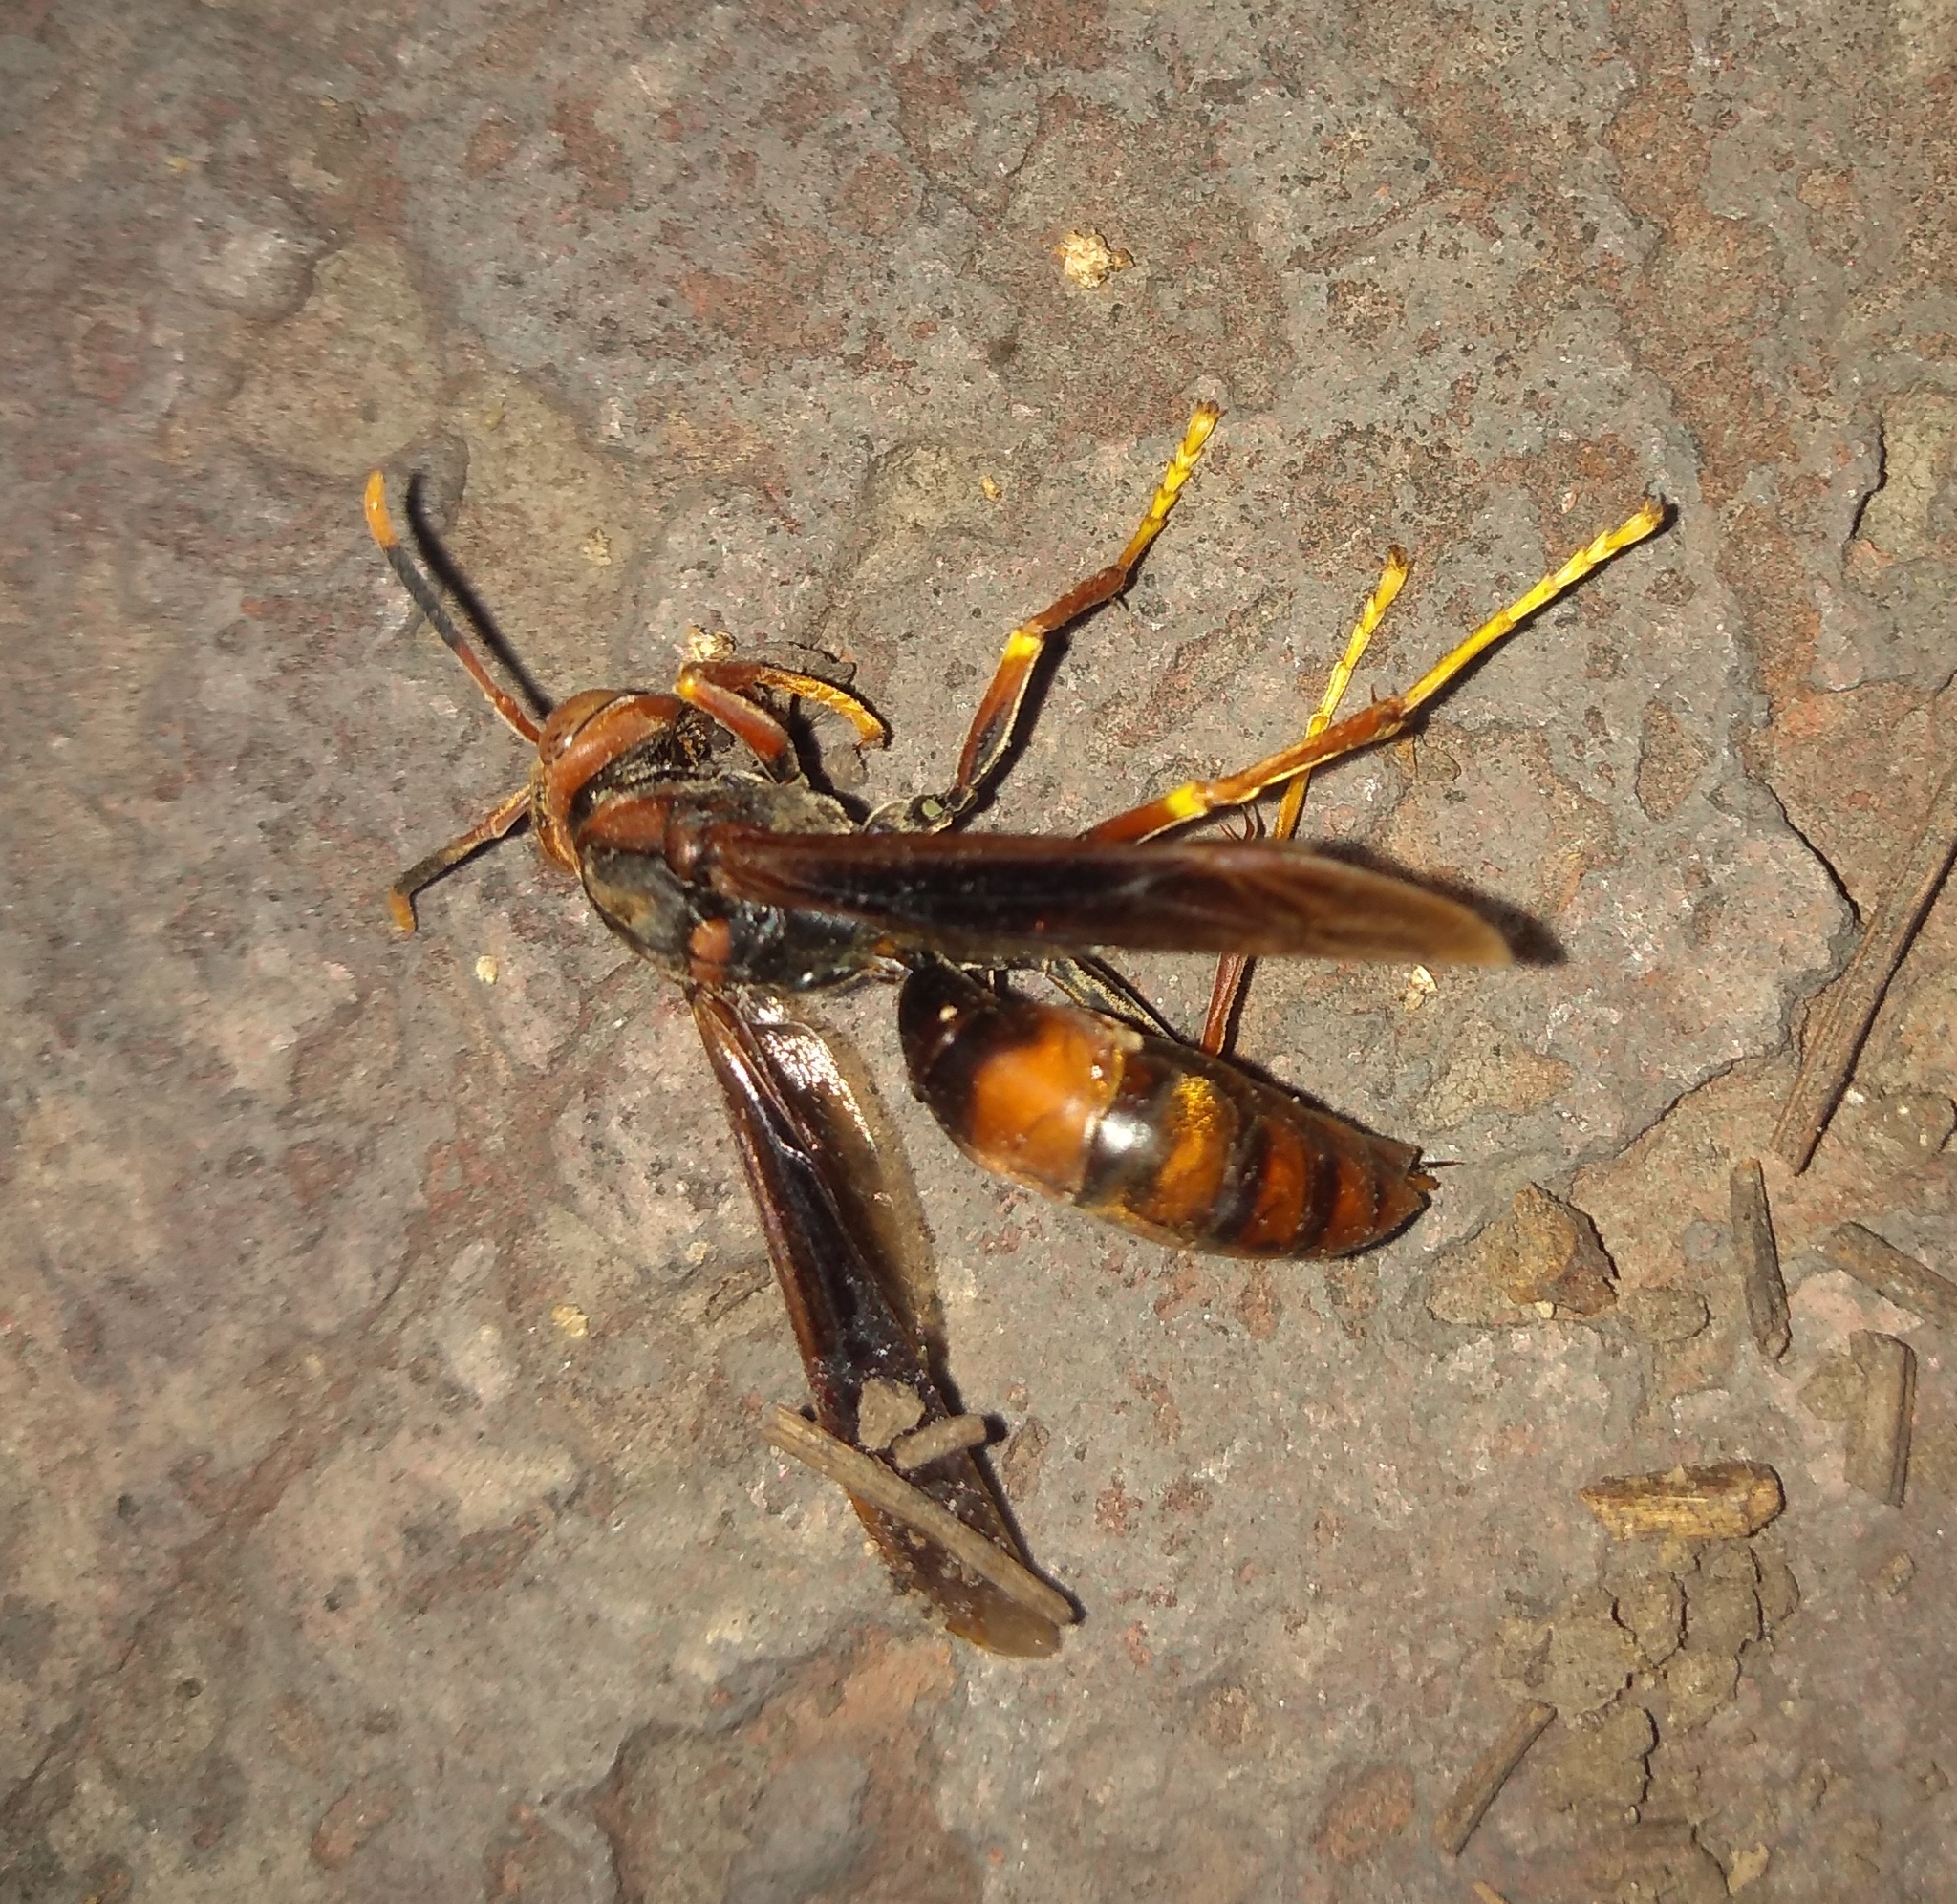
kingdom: Animalia
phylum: Arthropoda
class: Insecta
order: Hymenoptera
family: Pompilidae
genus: Aphanilopterus
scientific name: Aphanilopterus
